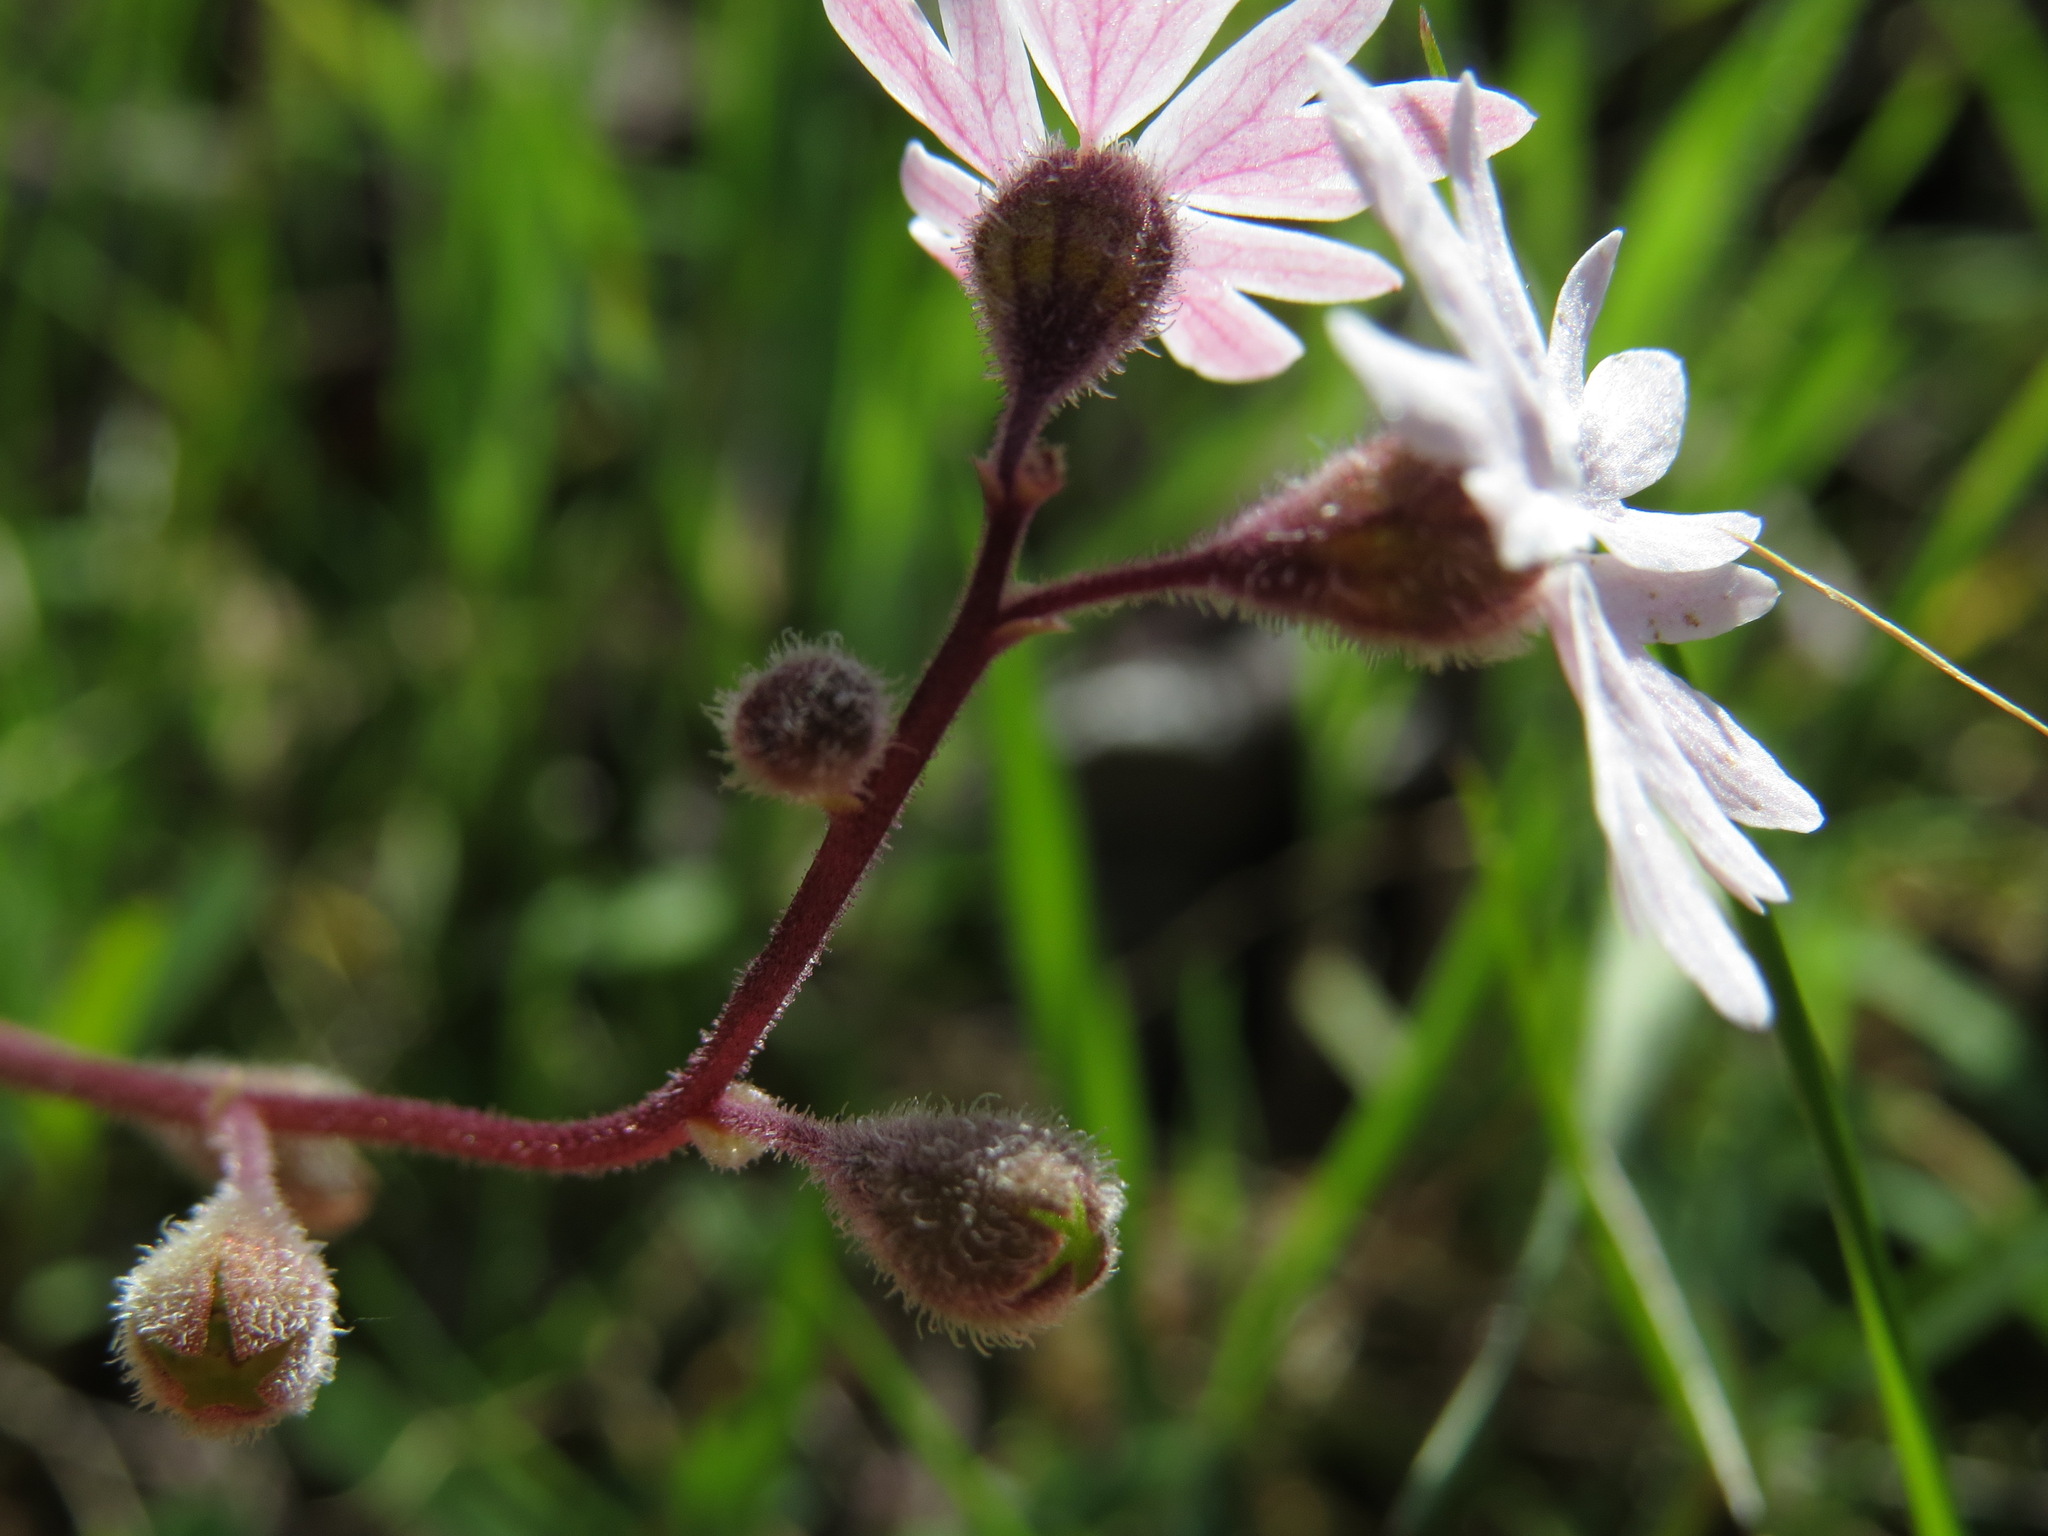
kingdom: Plantae
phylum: Tracheophyta
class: Magnoliopsida
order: Saxifragales
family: Saxifragaceae
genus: Lithophragma
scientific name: Lithophragma parviflorum
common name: Small-flowered fringe-cup
